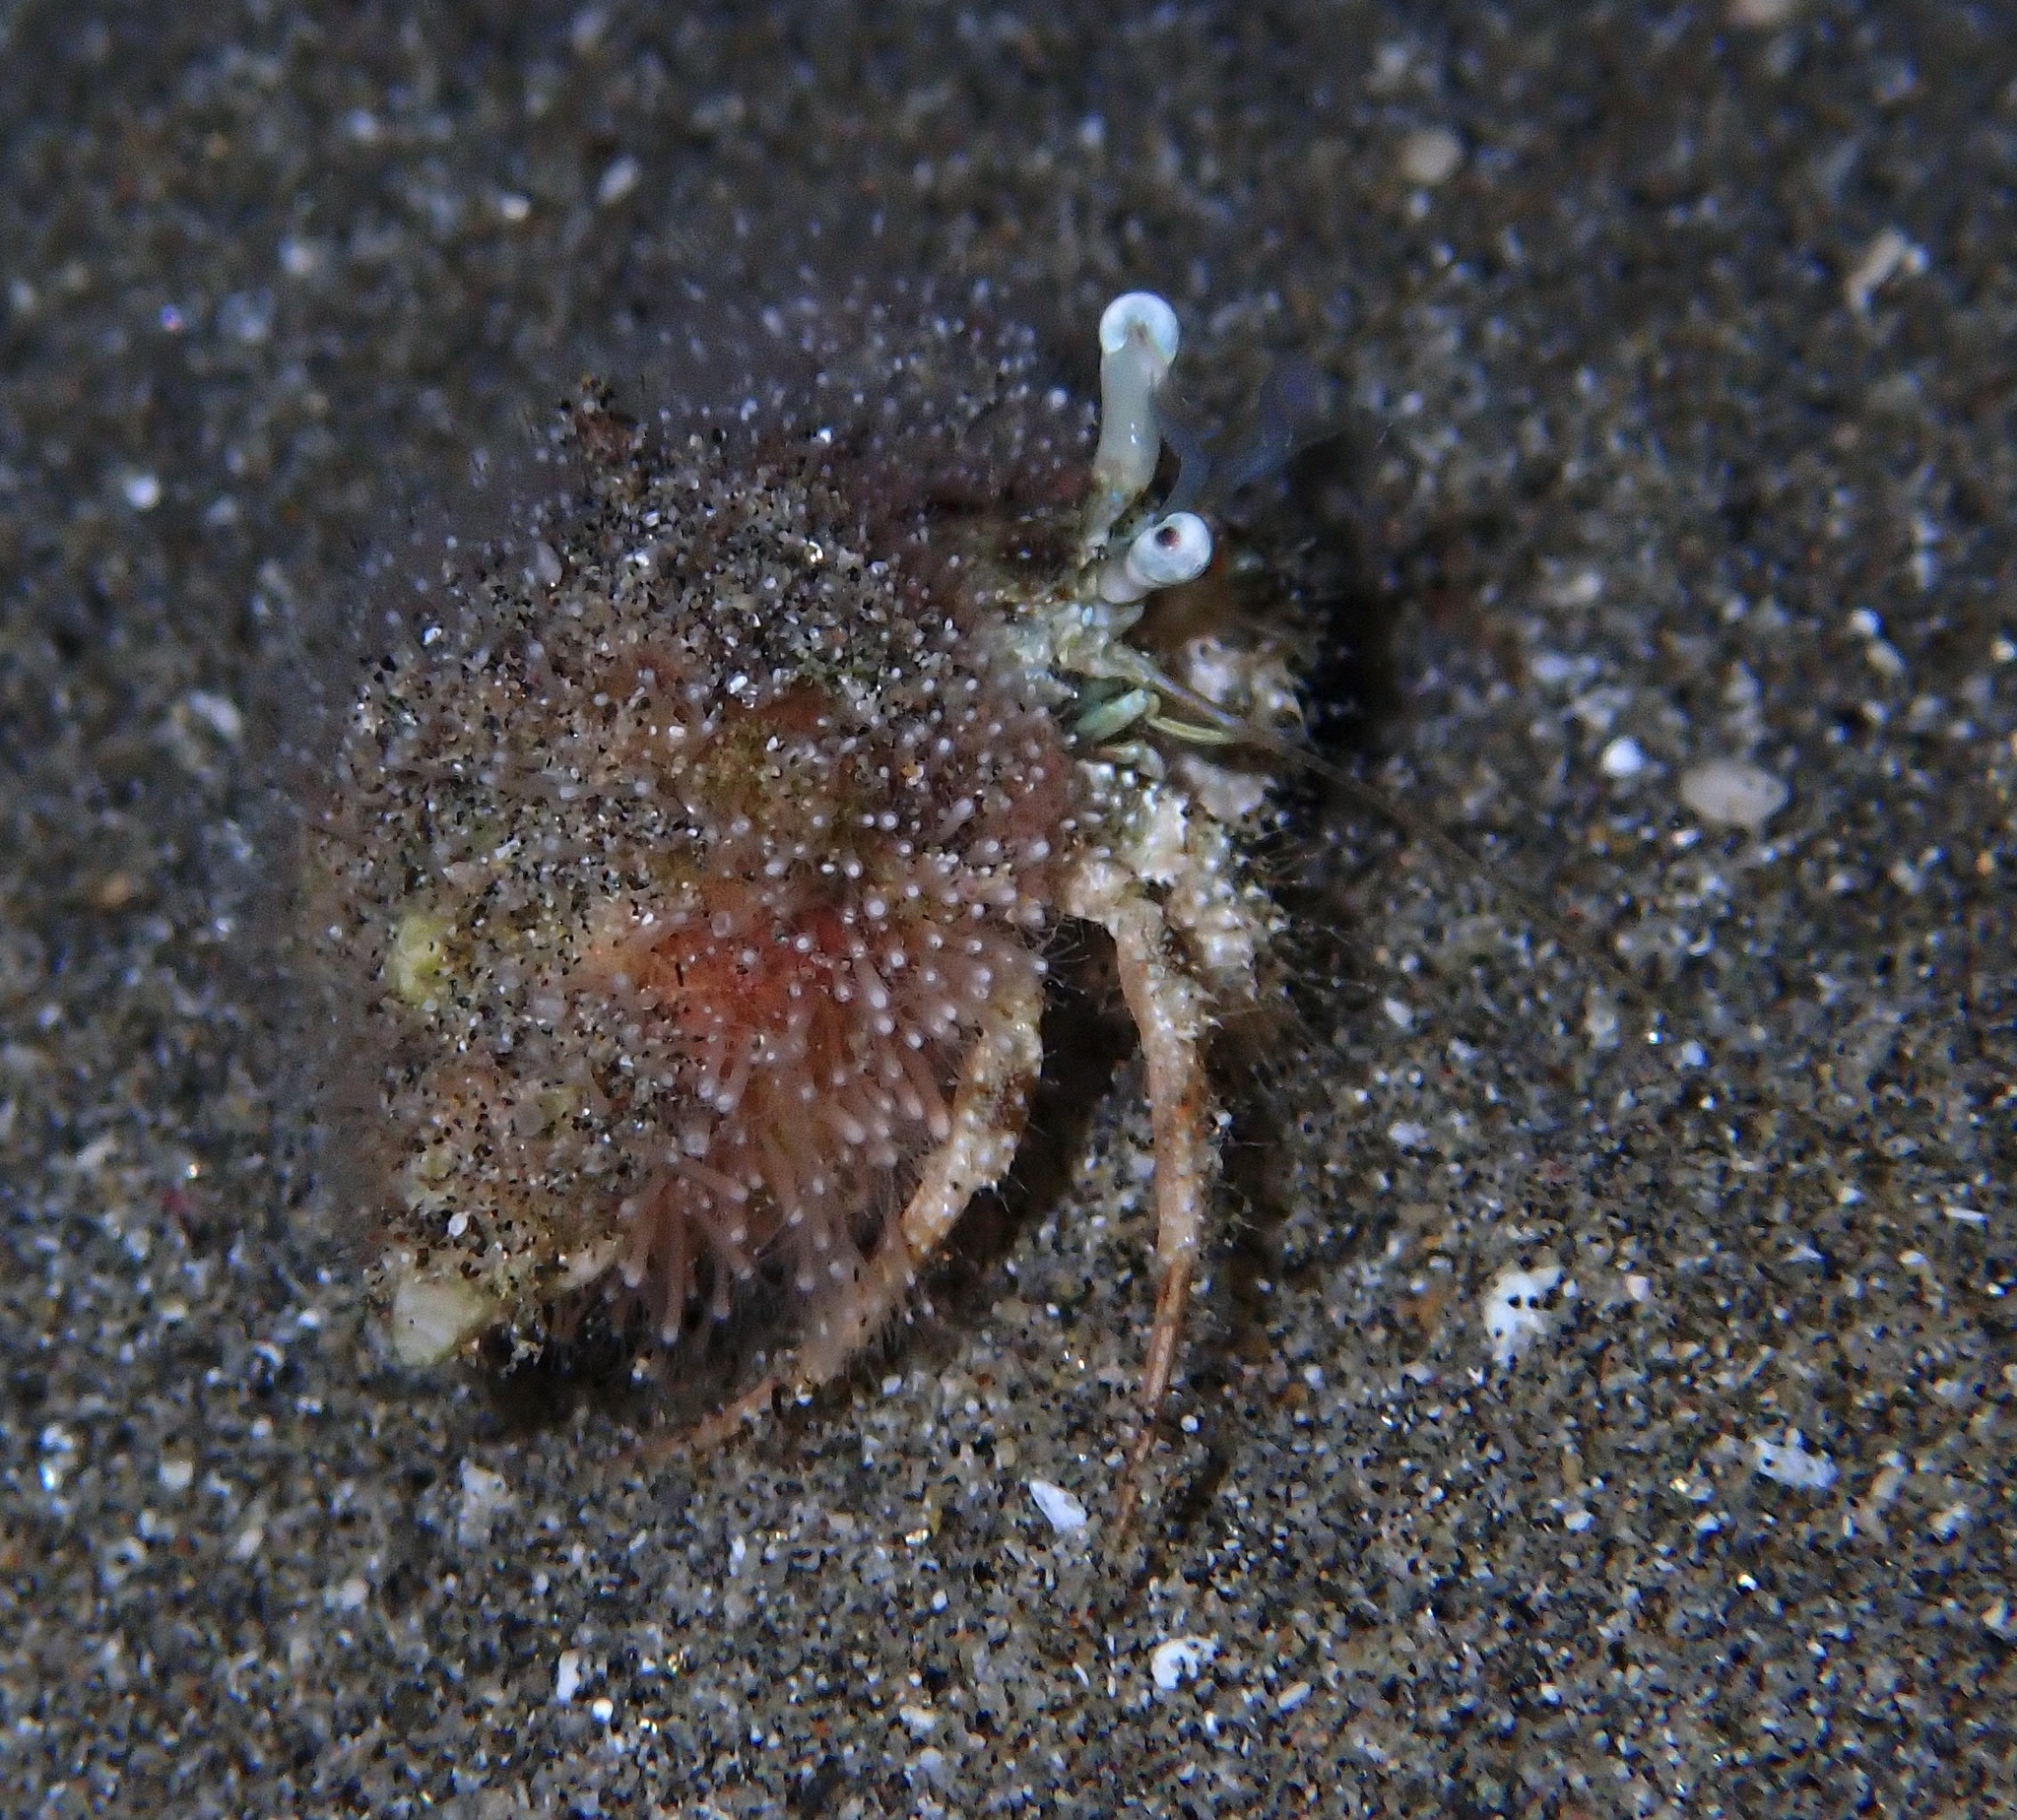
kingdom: Animalia
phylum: Arthropoda
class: Malacostraca
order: Decapoda
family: Diogenidae
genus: Dardanus
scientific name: Dardanus woodmasoni
